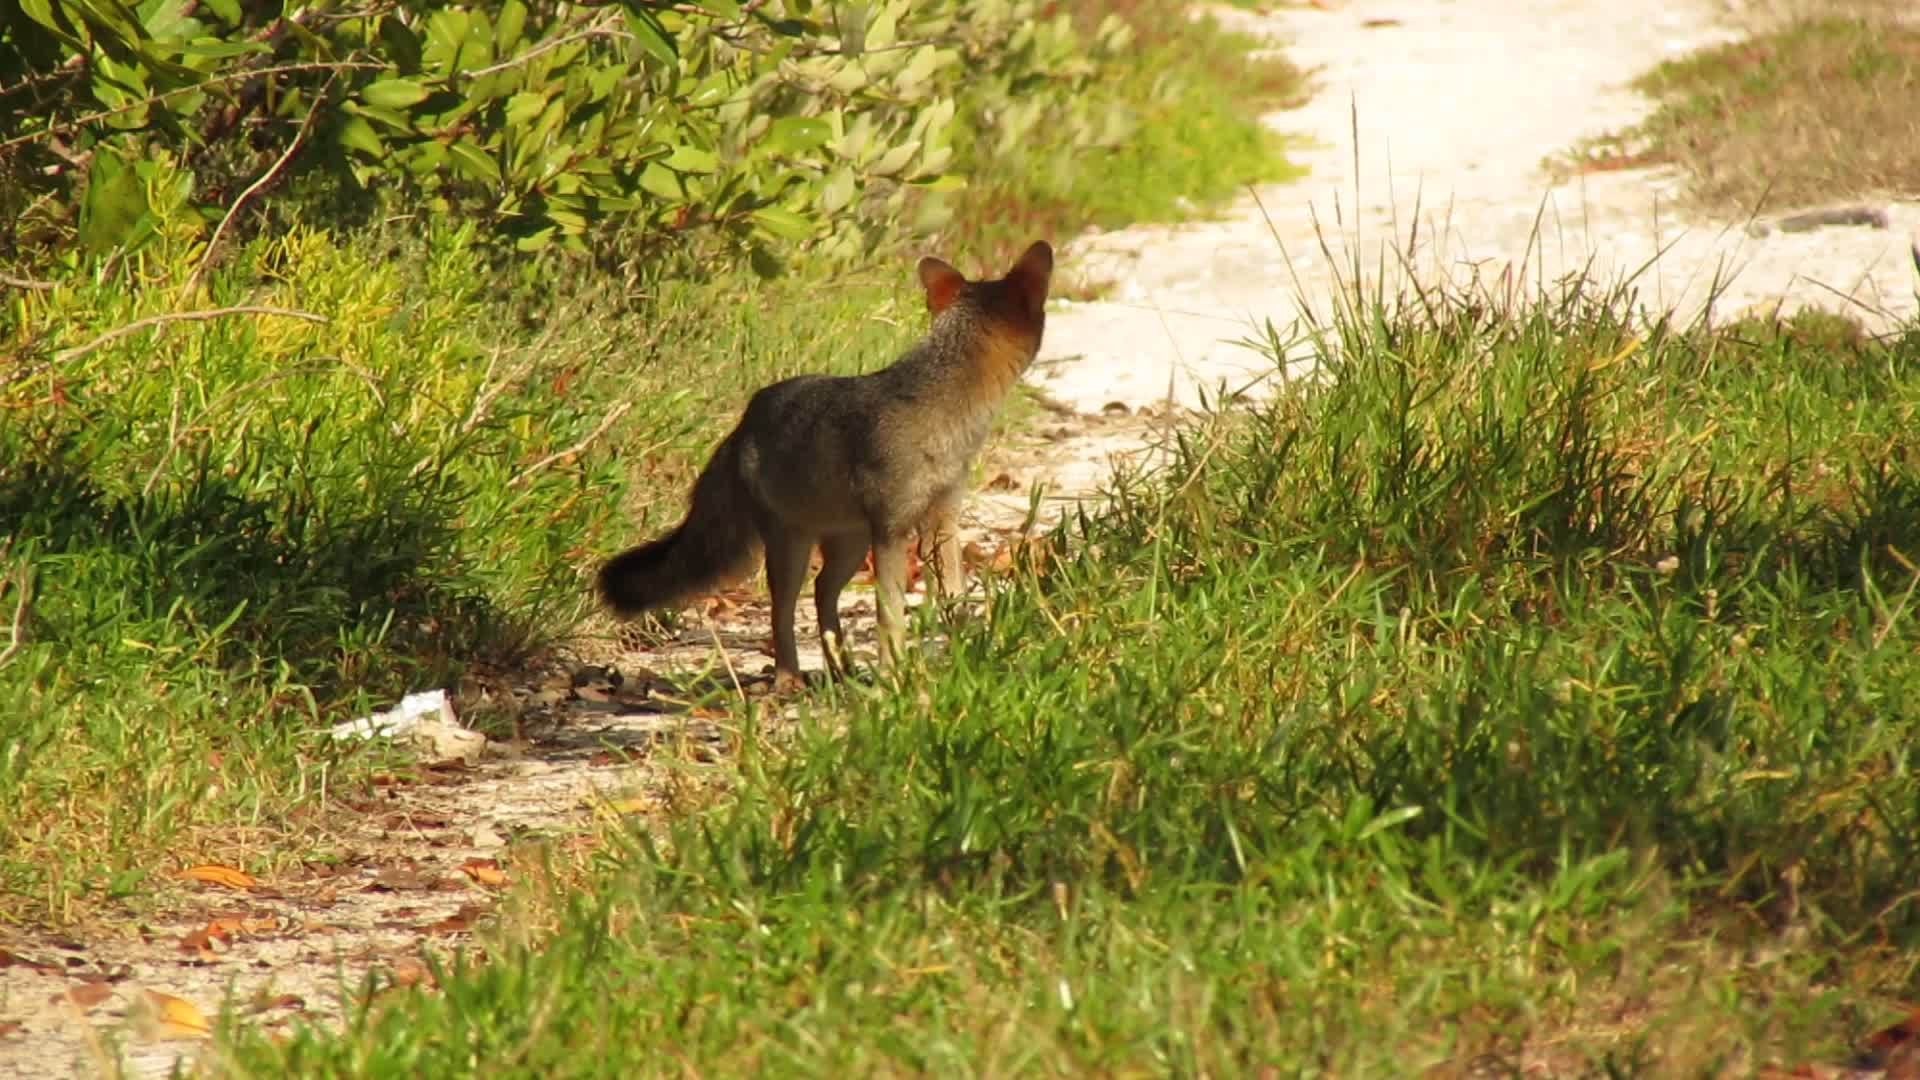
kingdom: Animalia
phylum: Chordata
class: Mammalia
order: Carnivora
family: Canidae
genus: Urocyon
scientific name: Urocyon cinereoargenteus
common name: Gray fox
